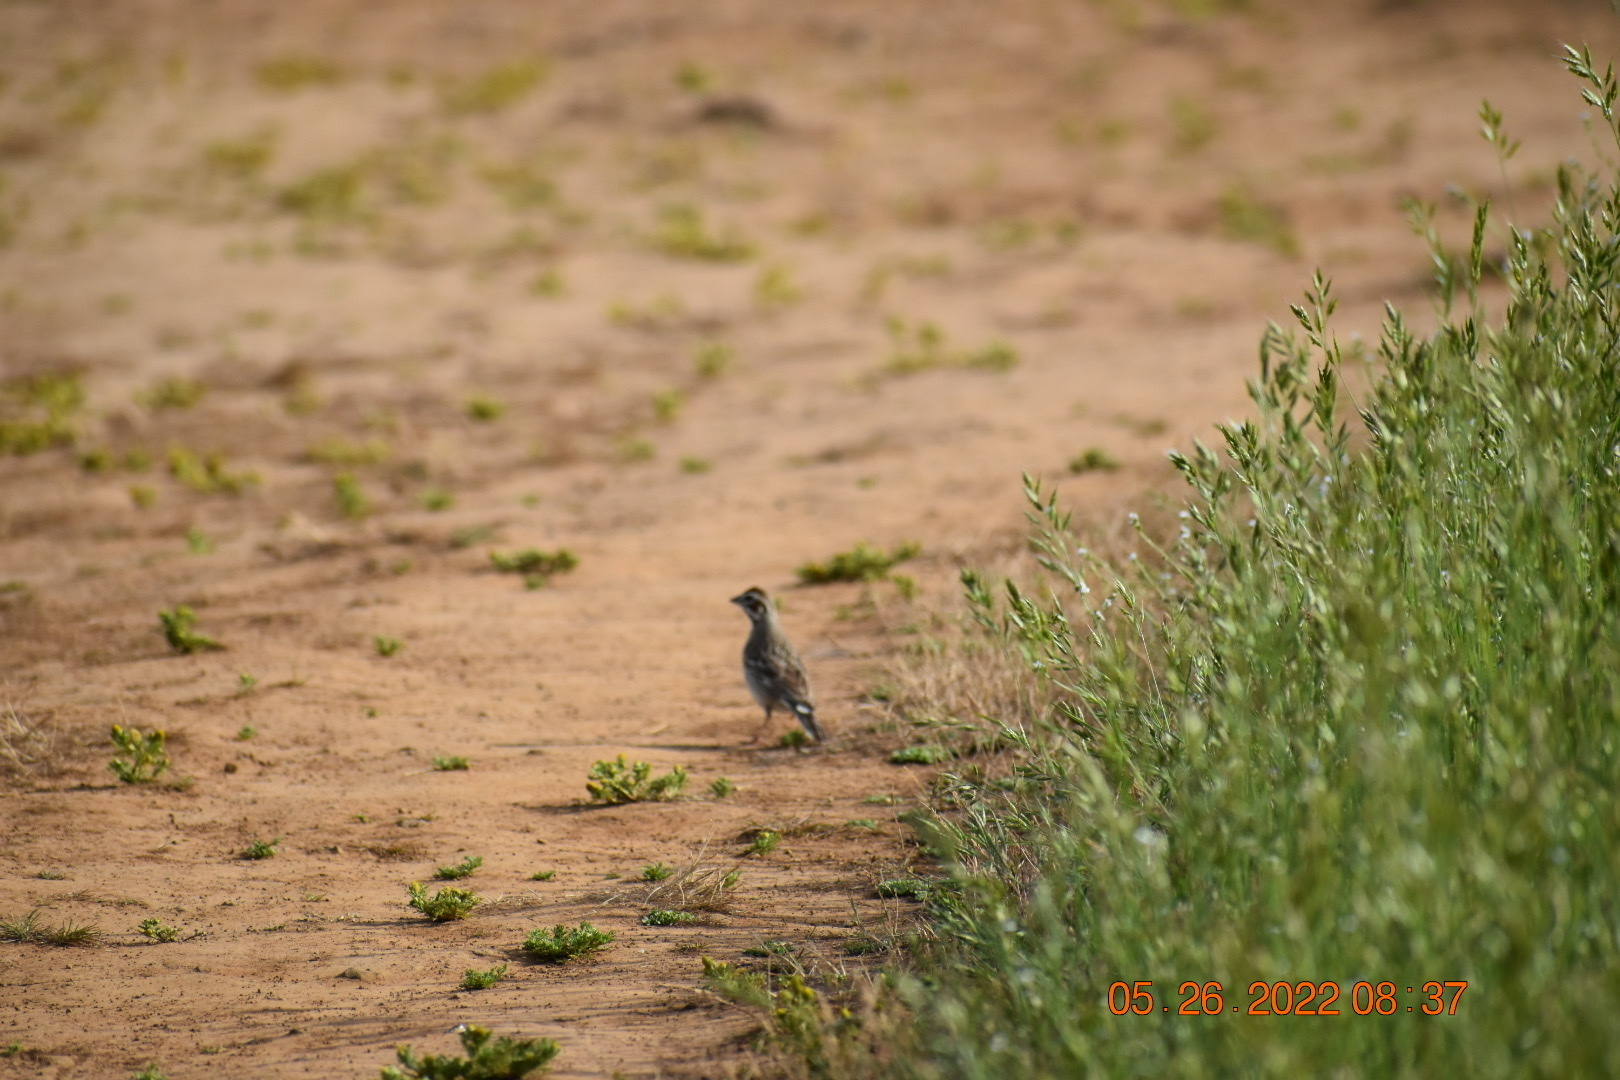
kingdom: Animalia
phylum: Chordata
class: Aves
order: Passeriformes
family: Passerellidae
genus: Chondestes
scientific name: Chondestes grammacus
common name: Lark sparrow
